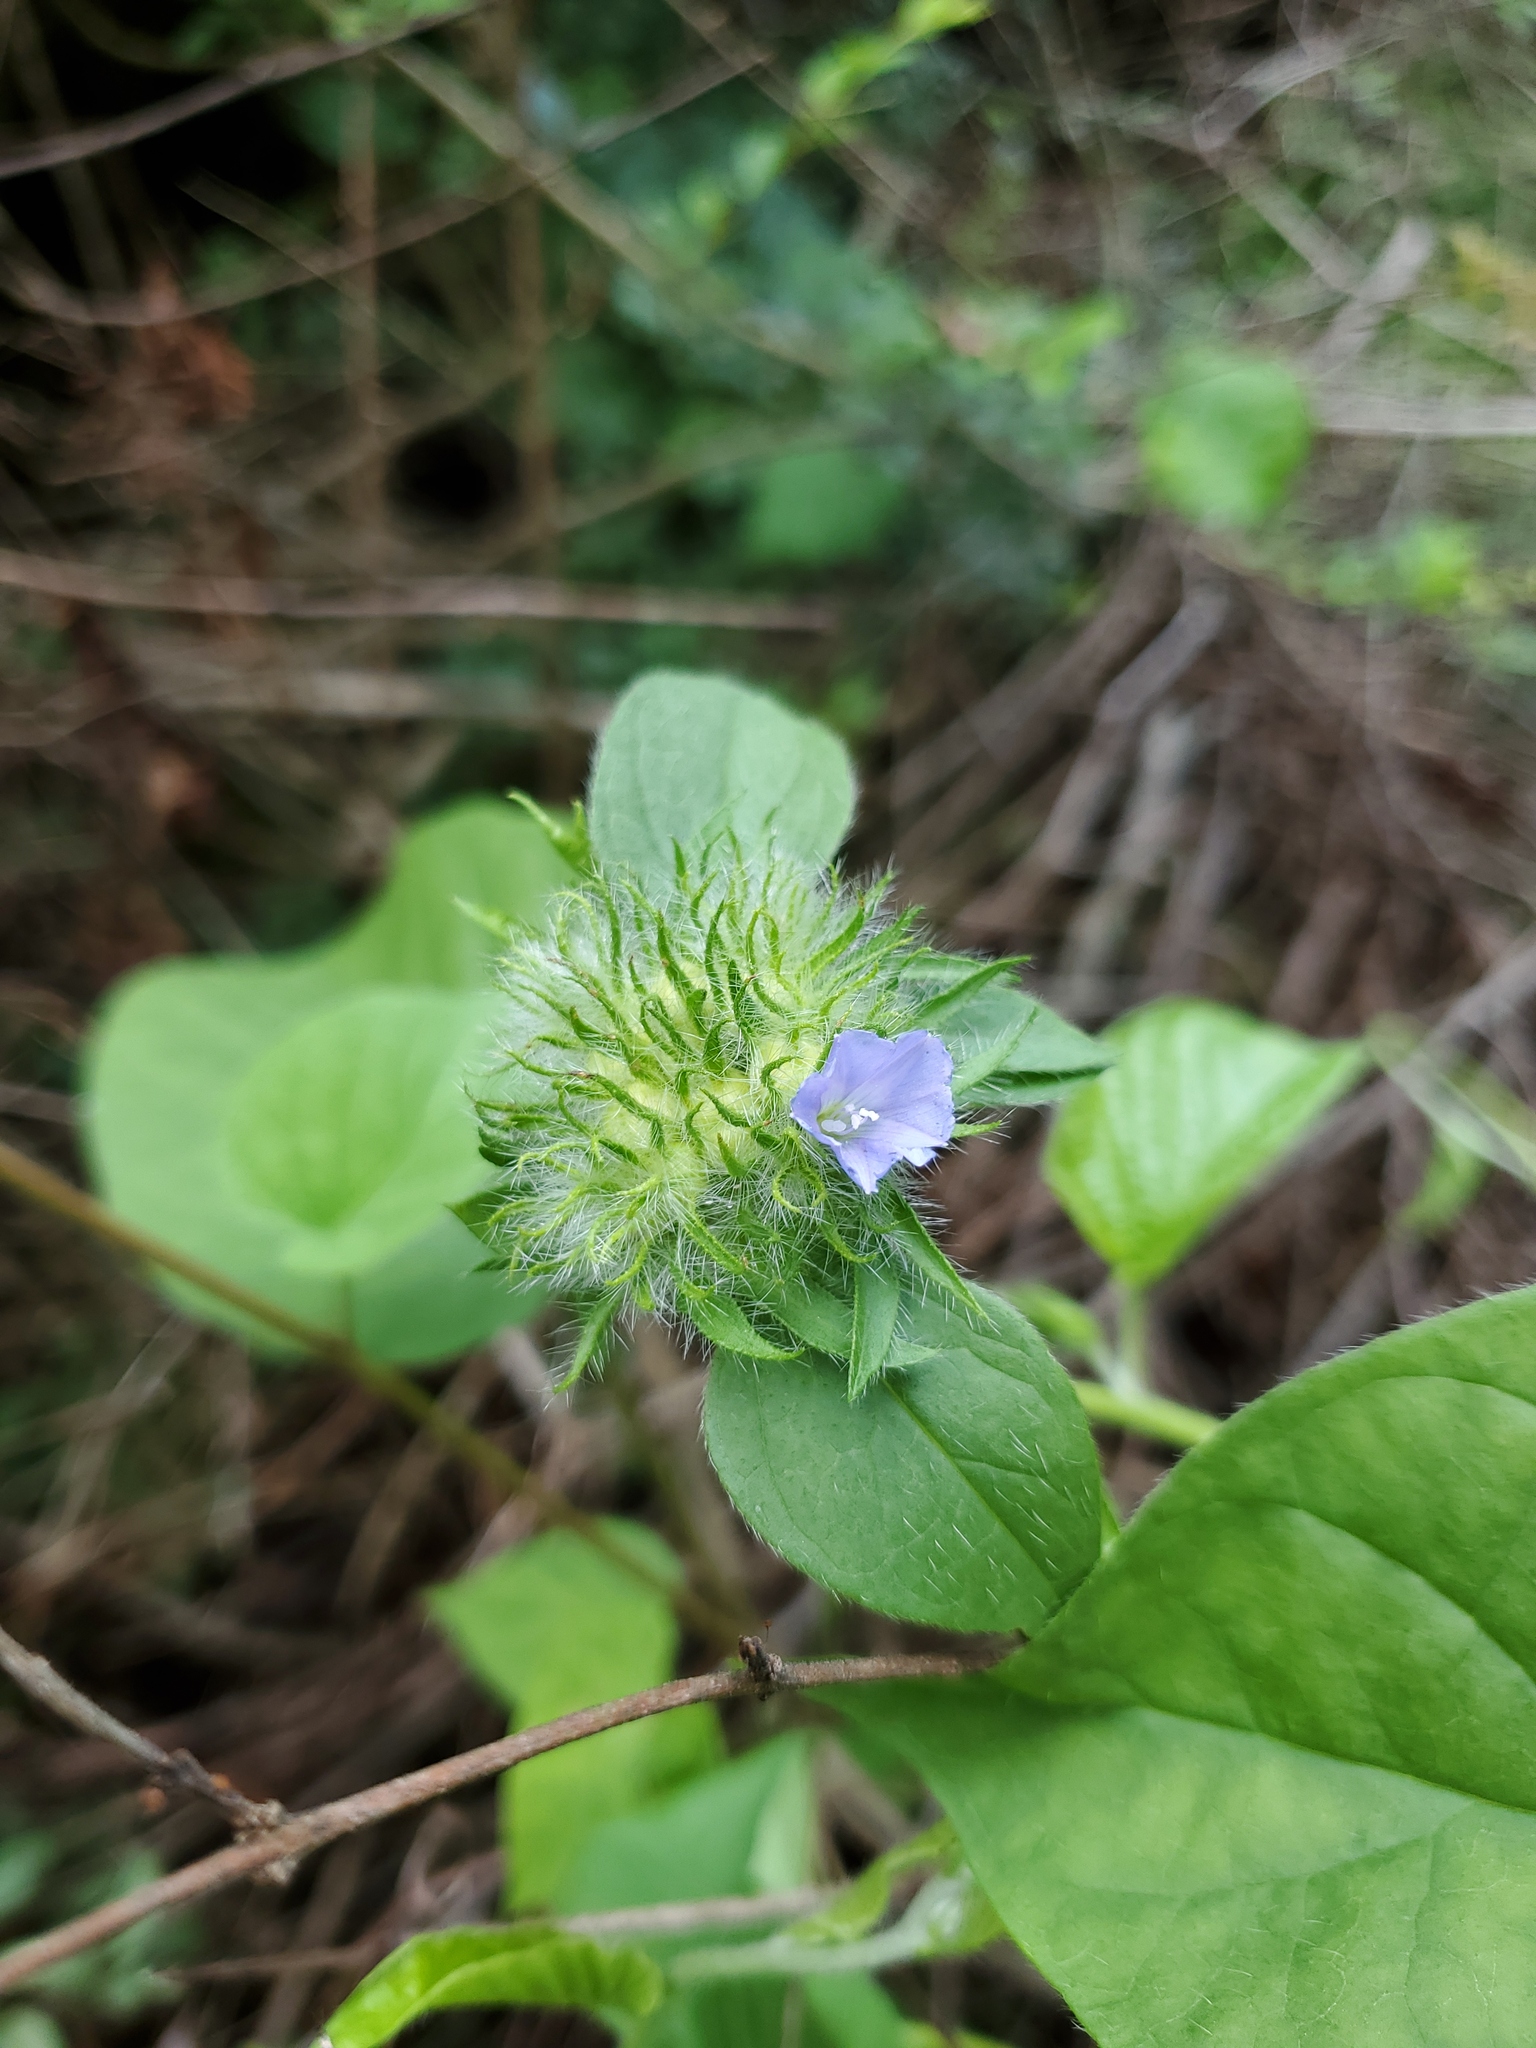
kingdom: Plantae
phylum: Tracheophyta
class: Magnoliopsida
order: Solanales
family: Convolvulaceae
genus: Jacquemontia
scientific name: Jacquemontia tamnifolia
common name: Hairy clustervine
